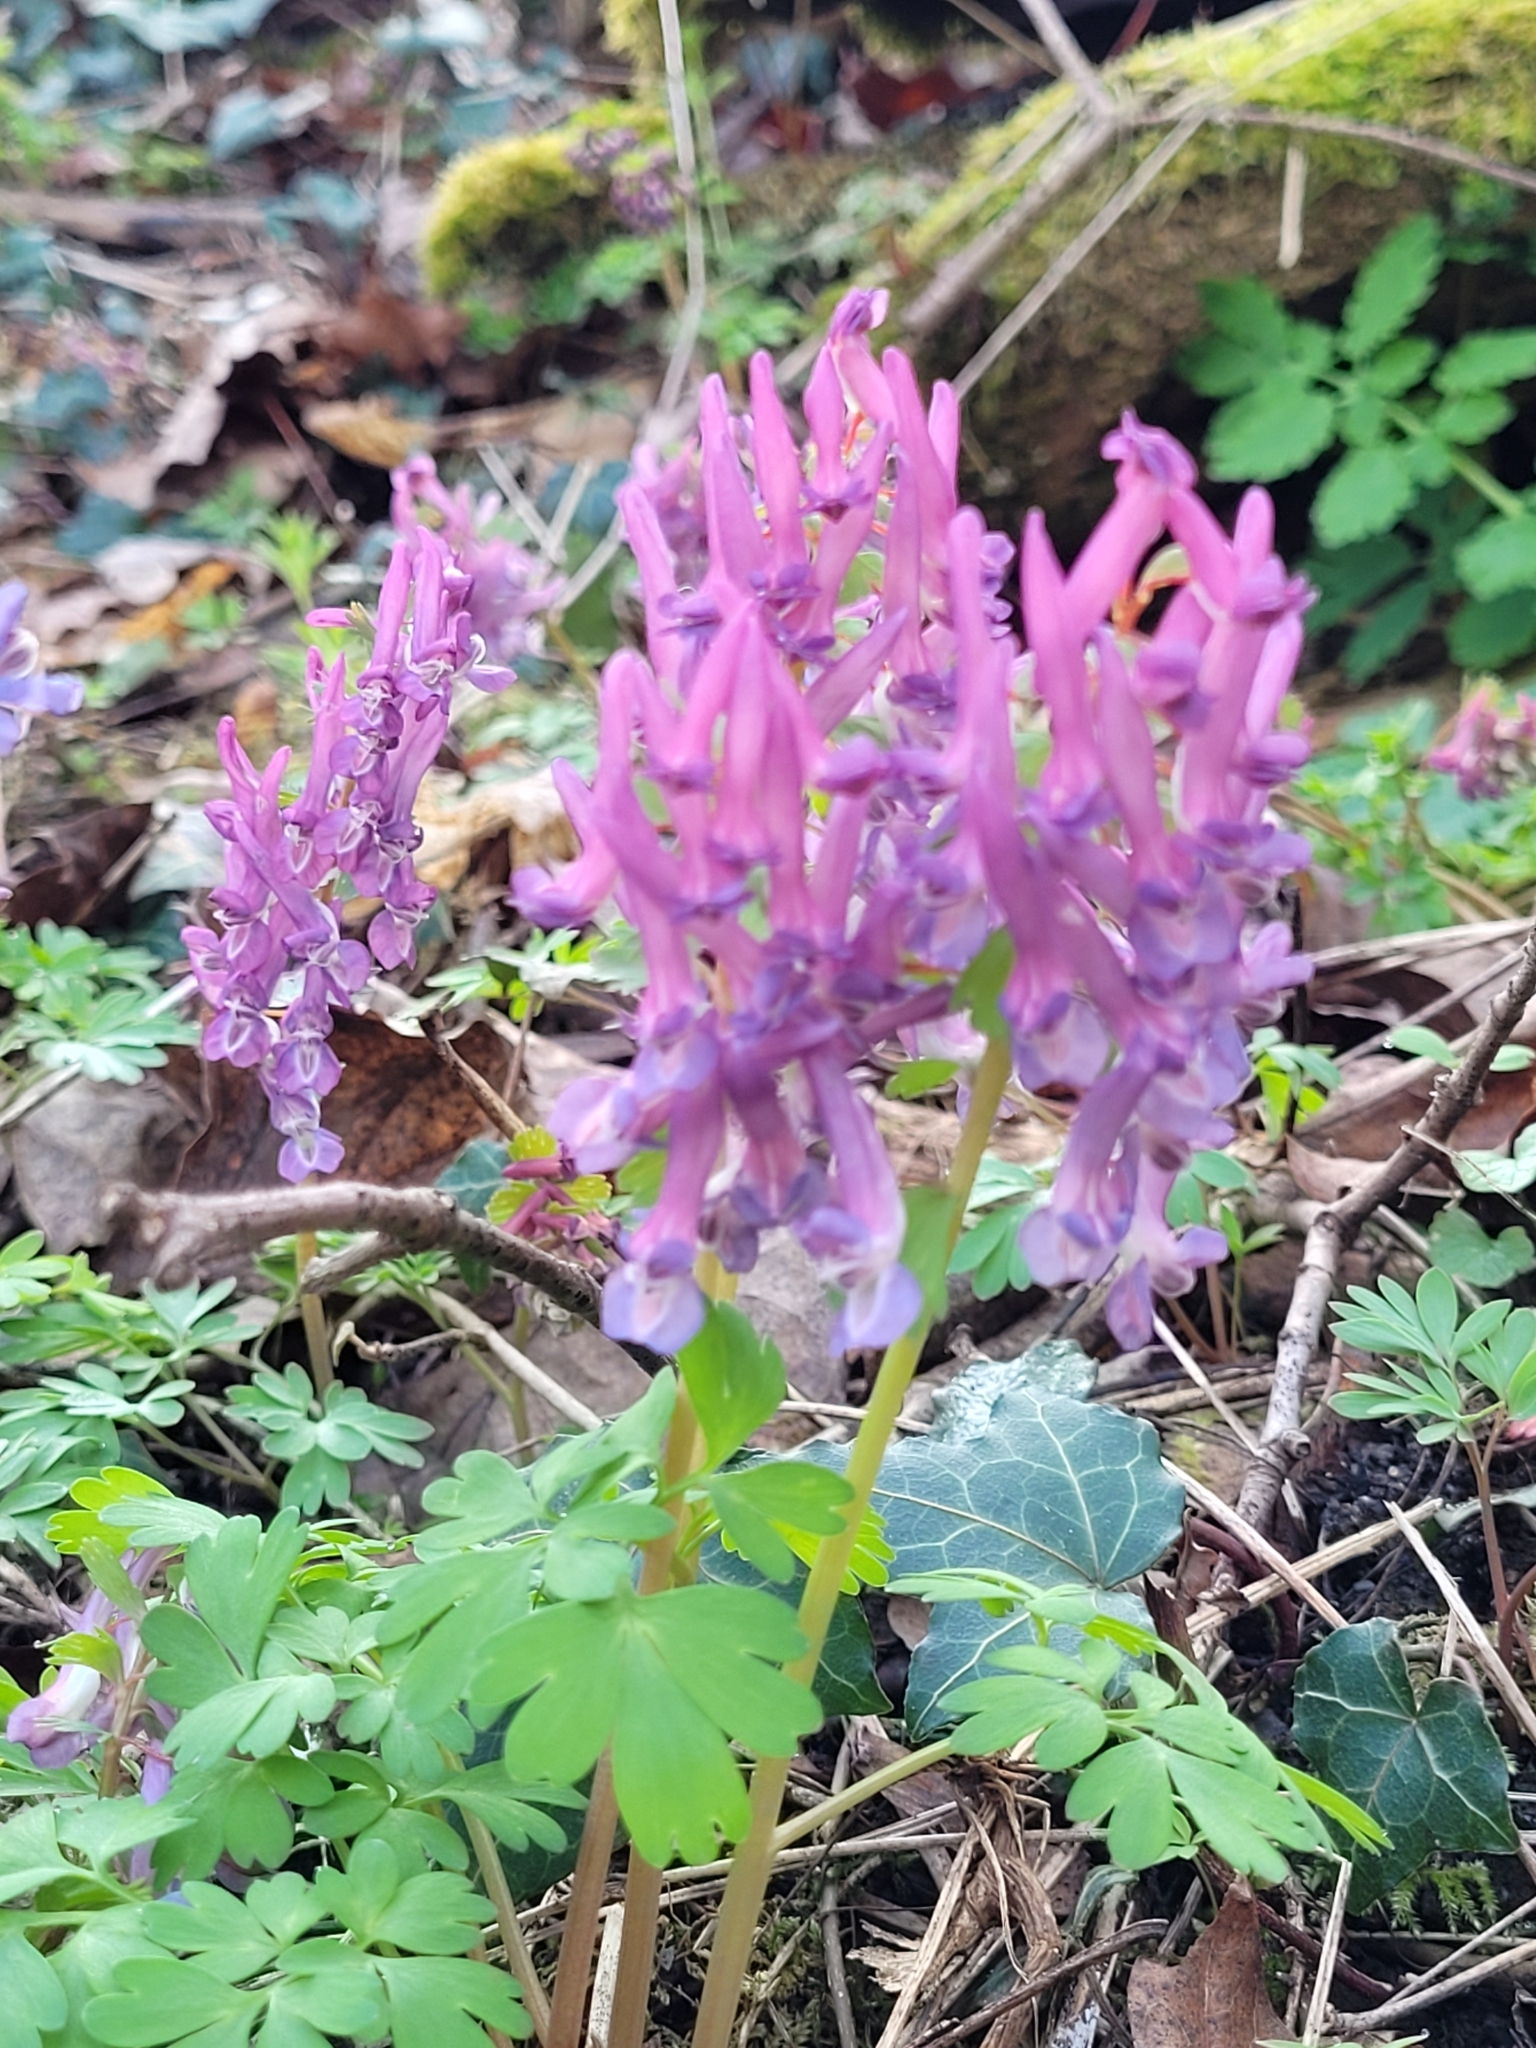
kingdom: Plantae
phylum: Tracheophyta
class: Magnoliopsida
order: Ranunculales
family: Papaveraceae
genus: Corydalis
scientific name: Corydalis solida
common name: Bird-in-a-bush
